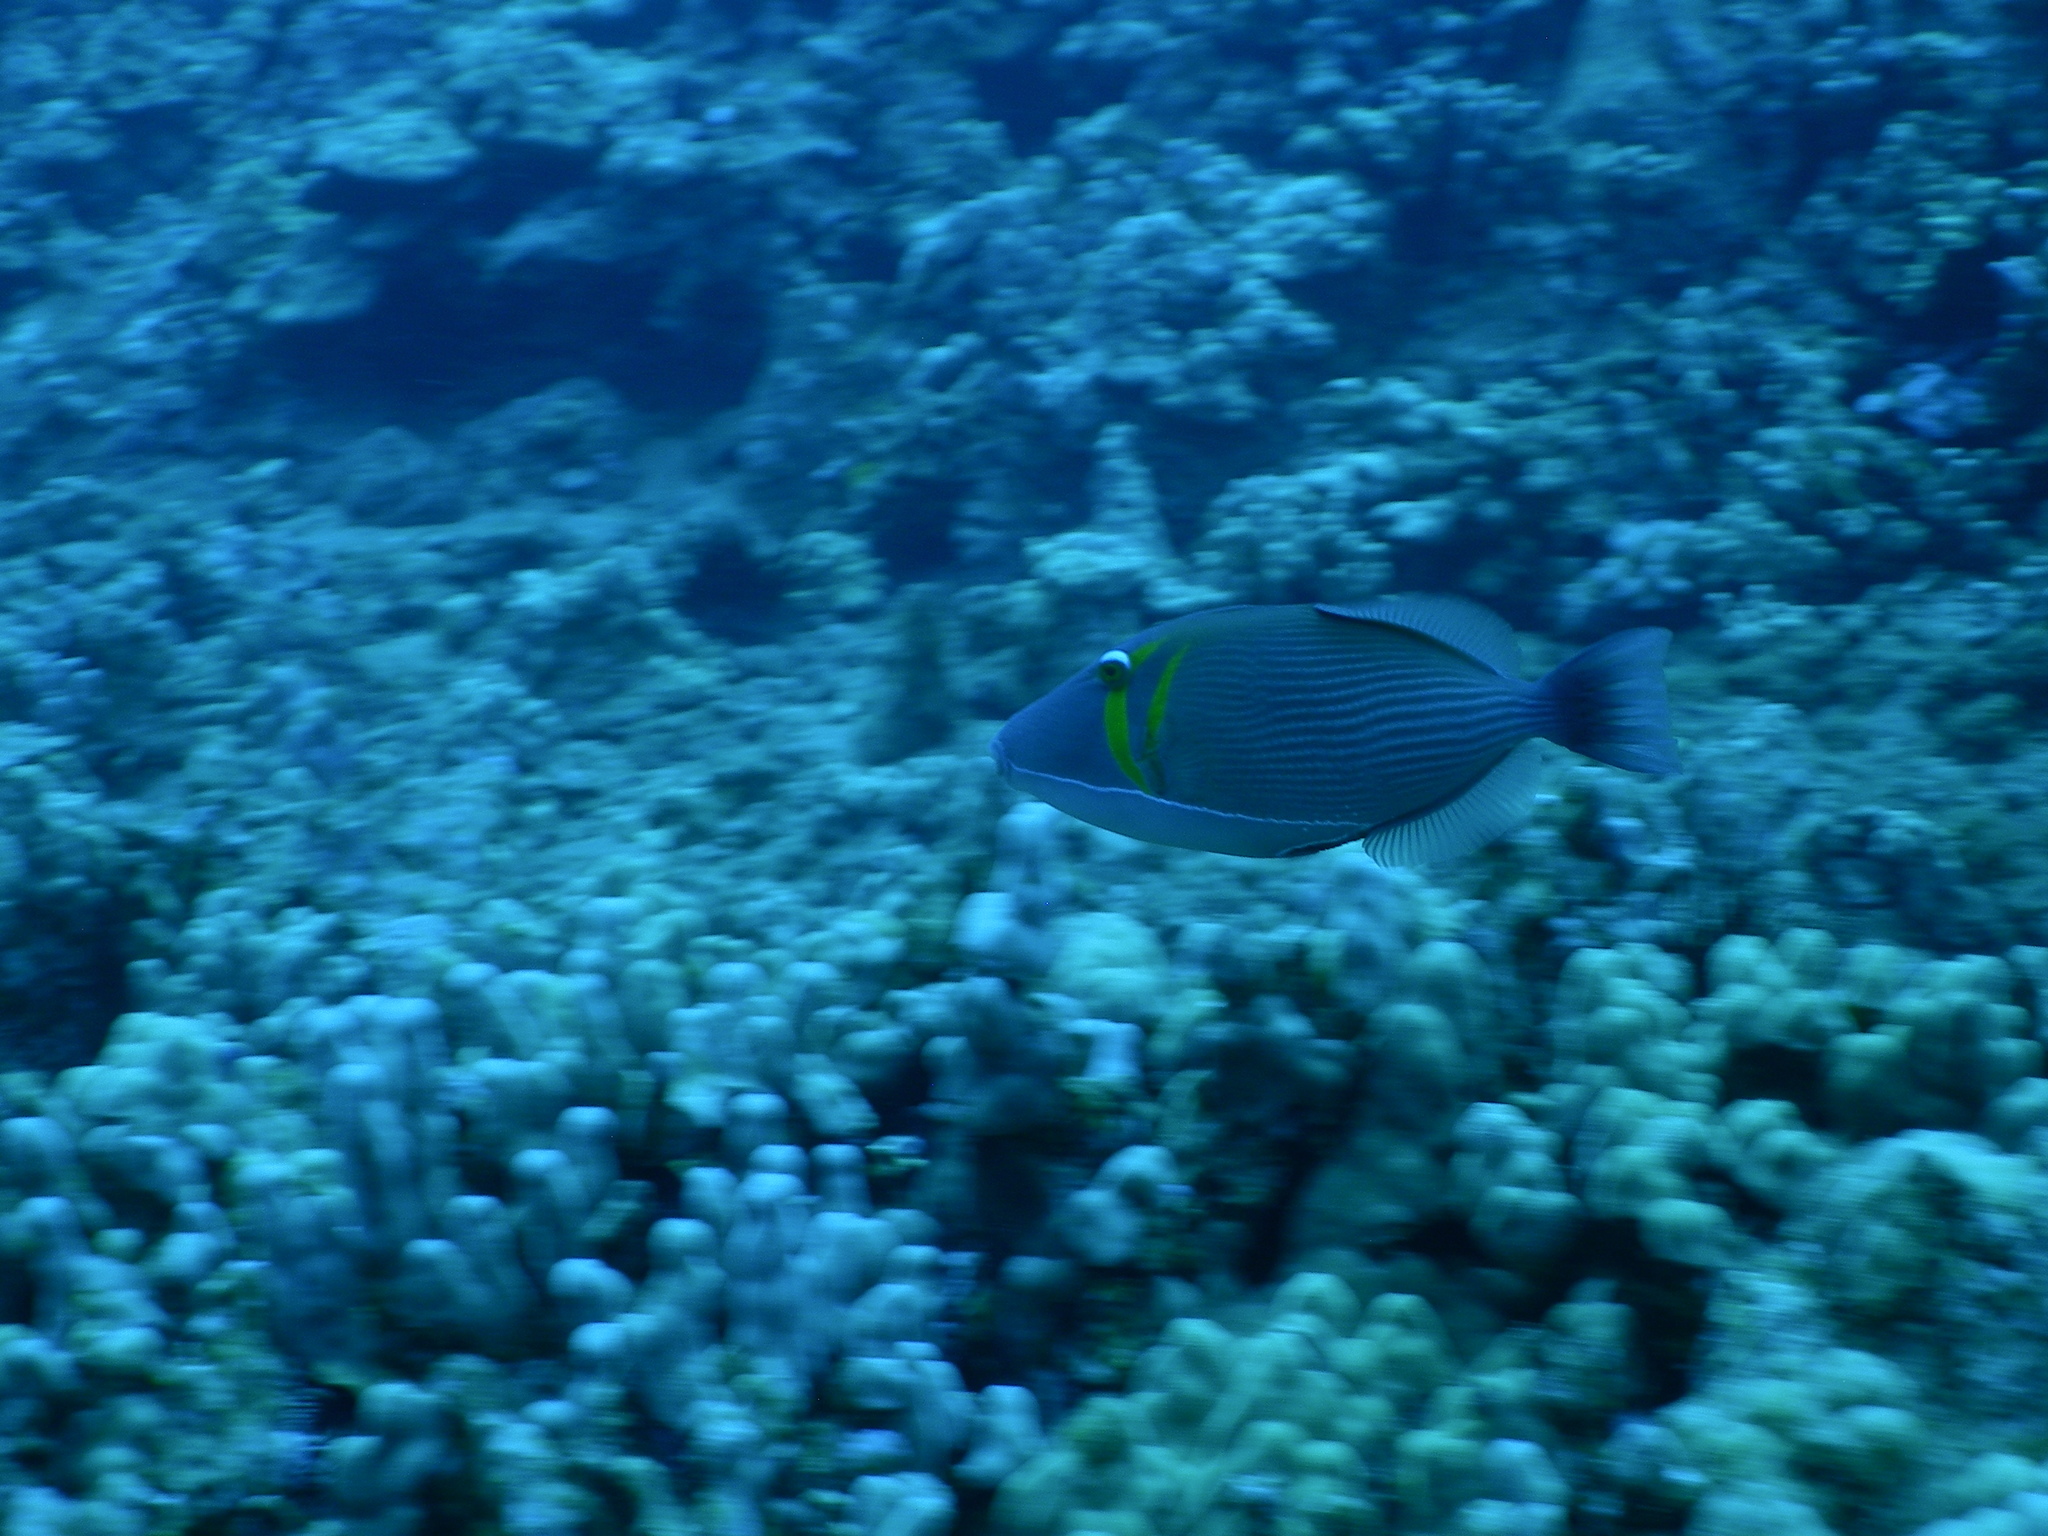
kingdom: Animalia
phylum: Chordata
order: Tetraodontiformes
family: Balistidae
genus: Sufflamen
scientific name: Sufflamen bursa
